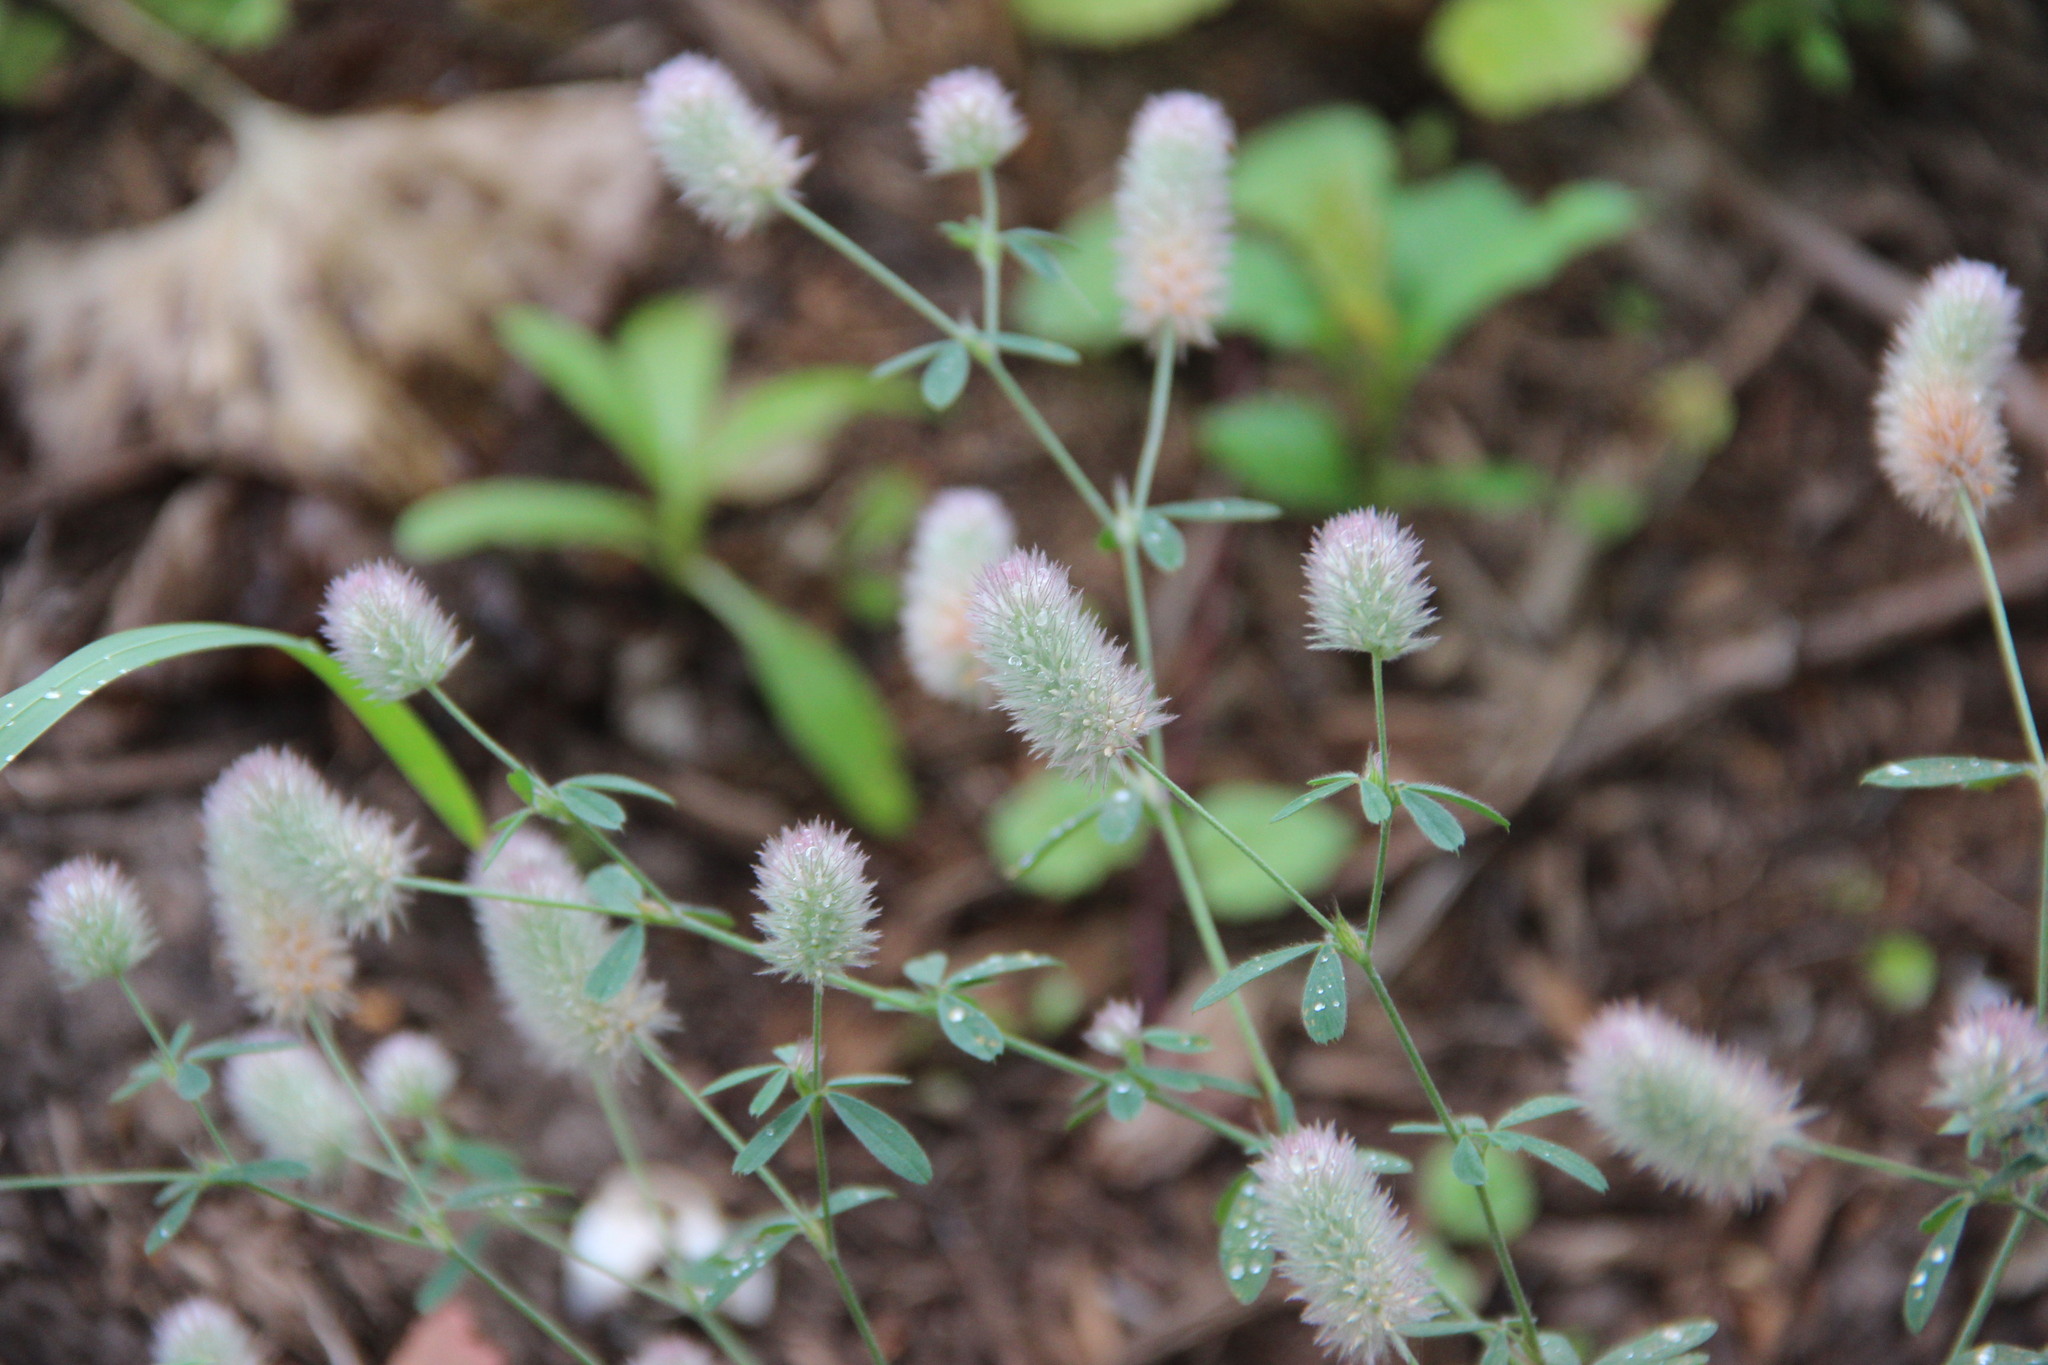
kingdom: Plantae
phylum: Tracheophyta
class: Magnoliopsida
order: Fabales
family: Fabaceae
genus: Trifolium
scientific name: Trifolium arvense
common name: Hare's-foot clover
